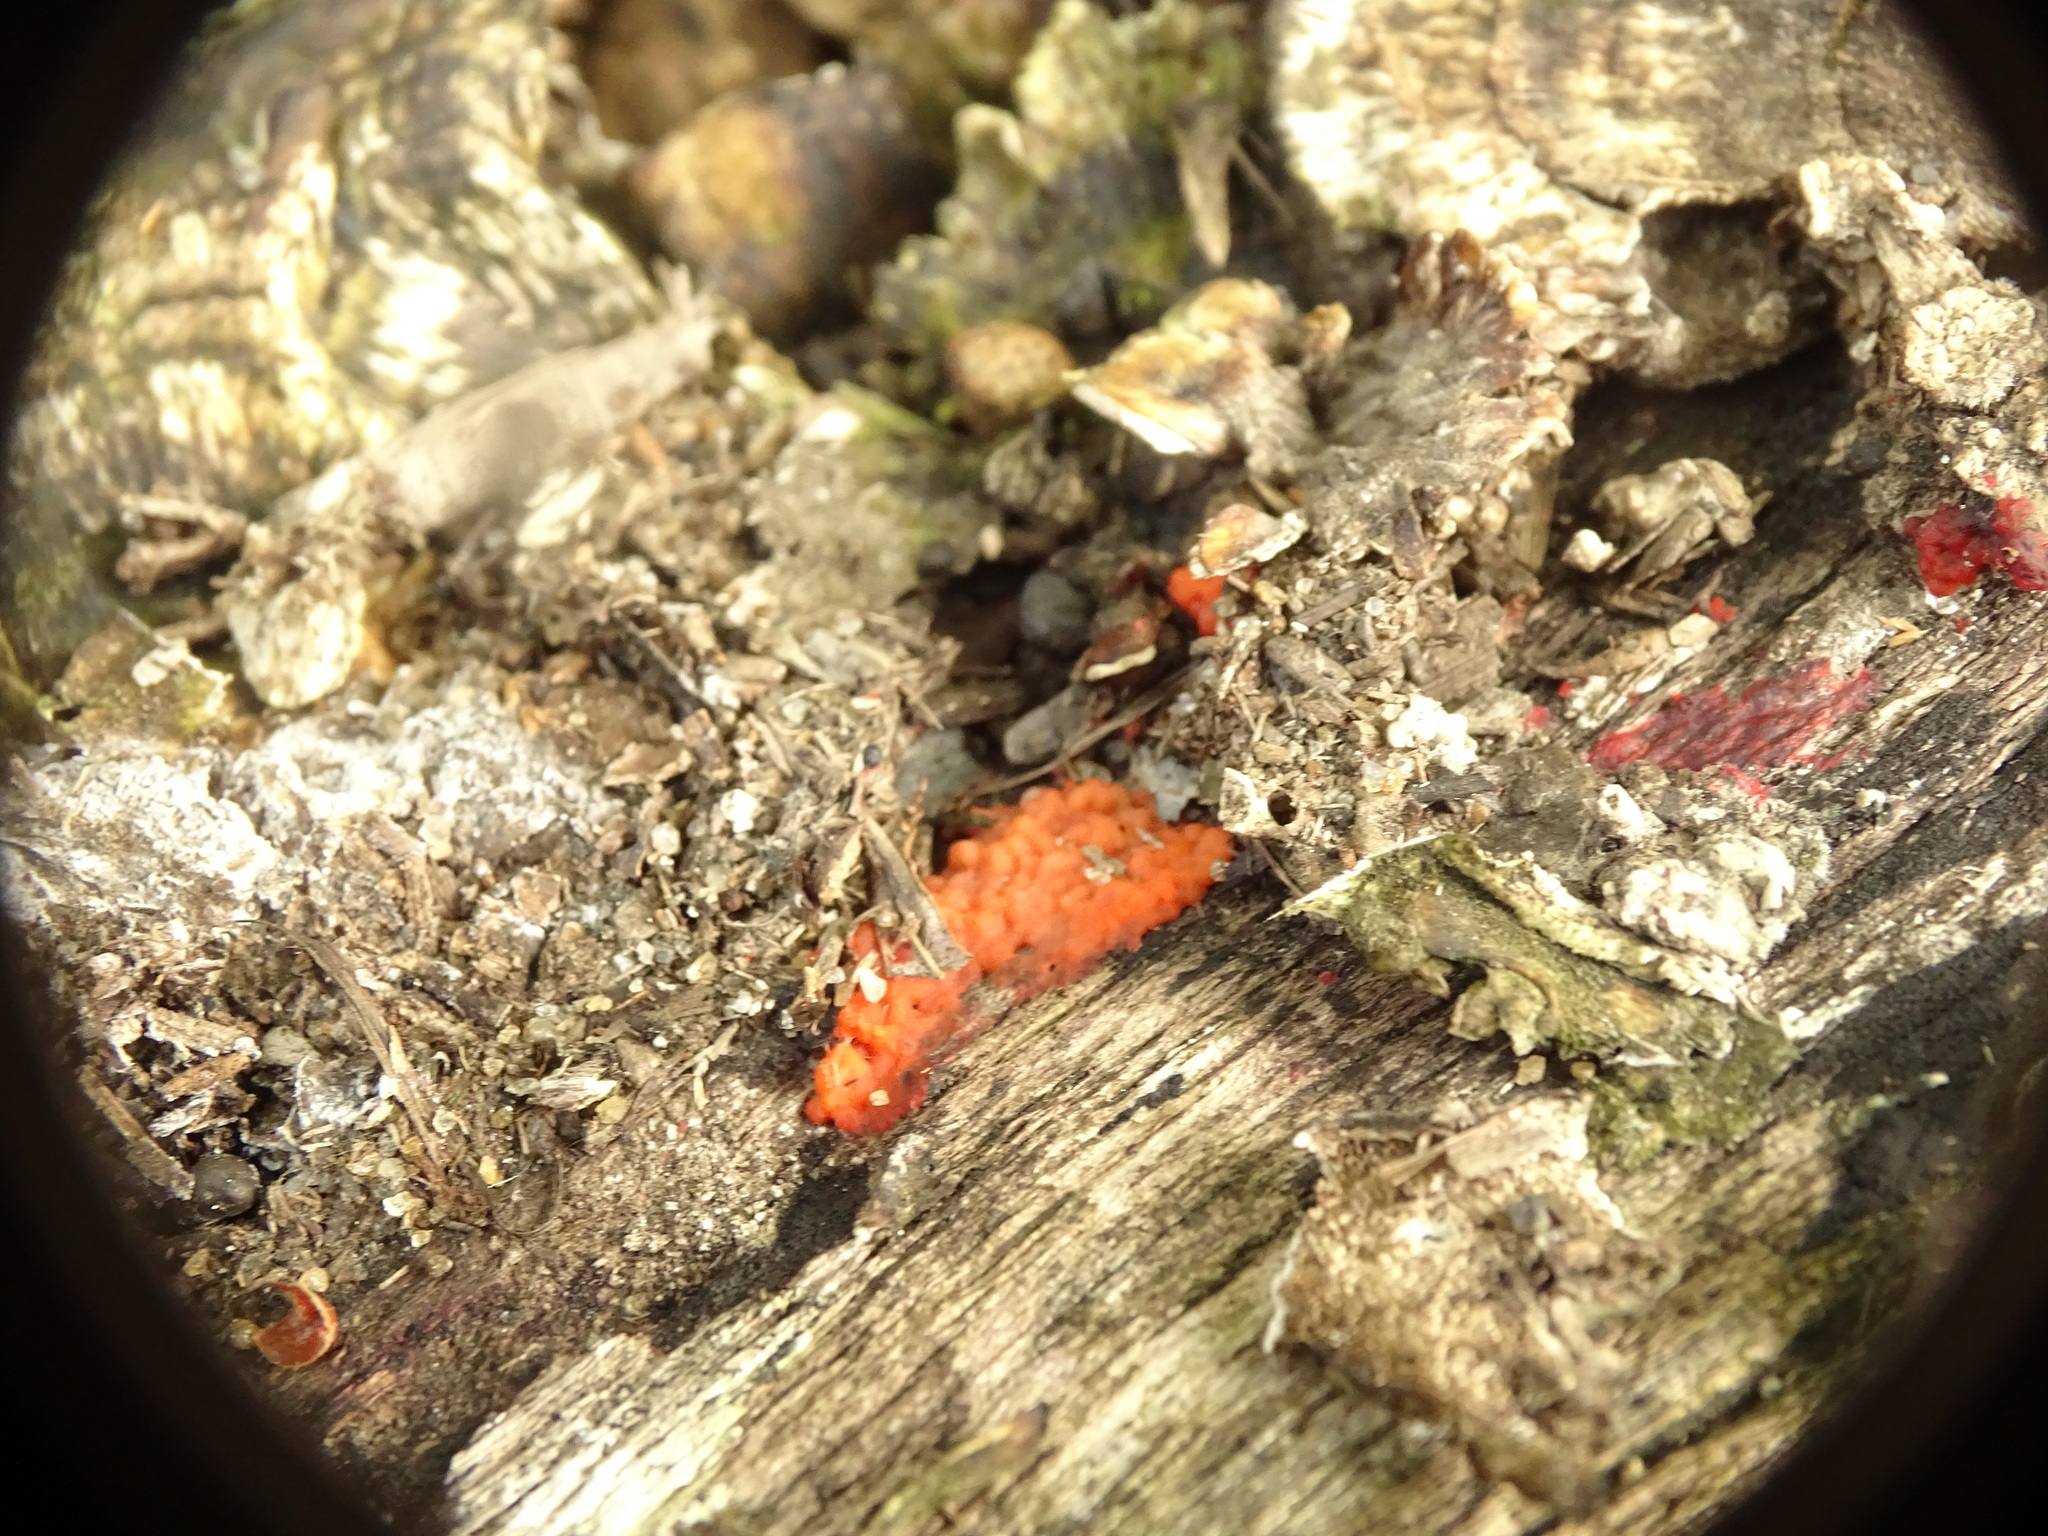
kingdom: Fungi
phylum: Basidiomycota
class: Agaricomycetes
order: Cantharellales
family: Tulasnellaceae
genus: Tulasnella
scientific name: Tulasnella aurantiaca
